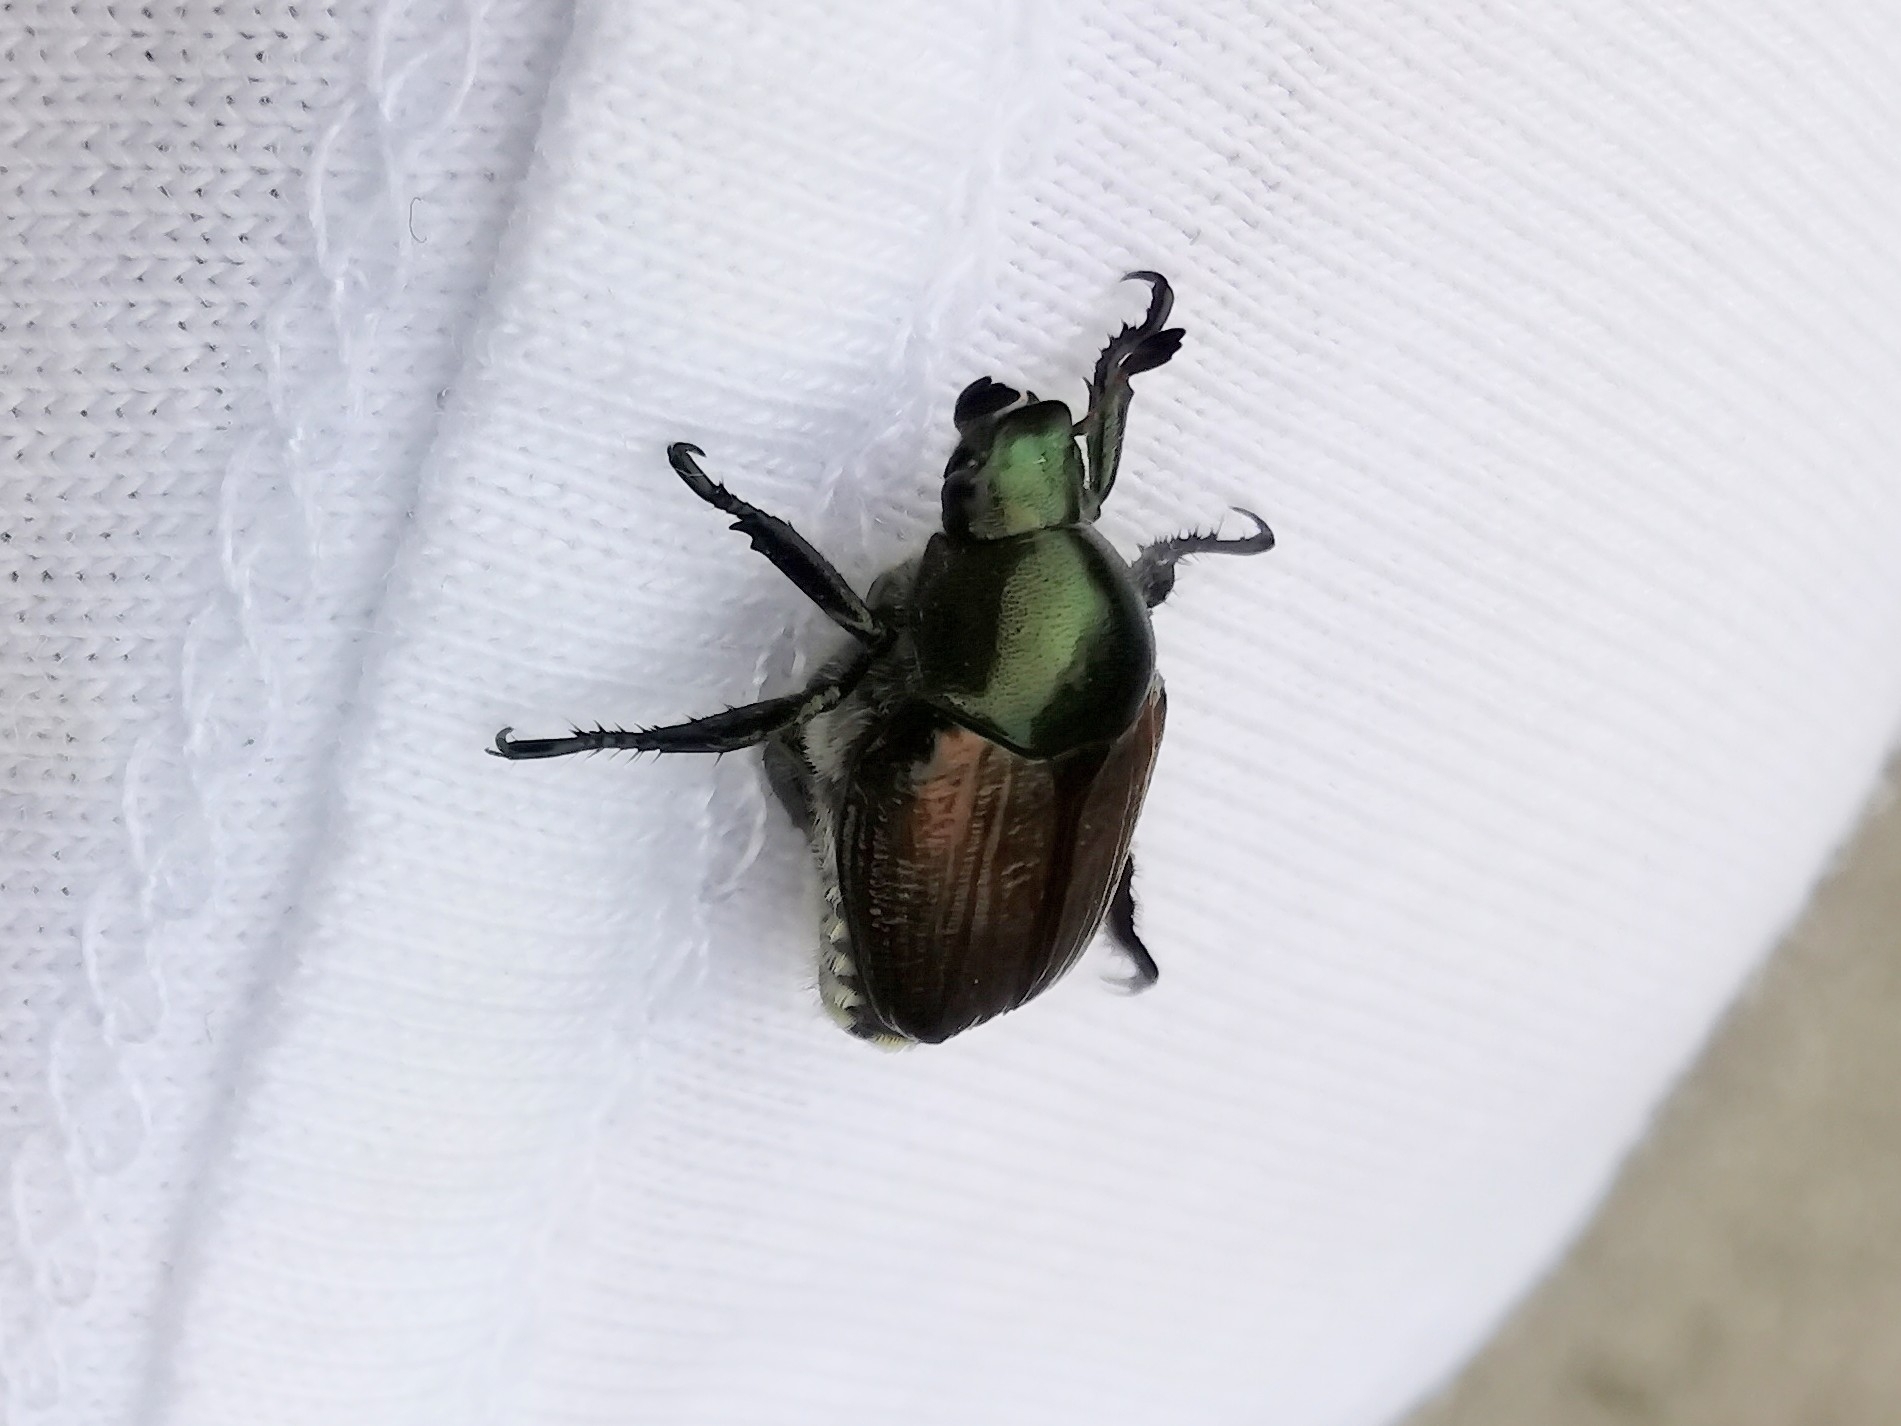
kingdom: Animalia
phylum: Arthropoda
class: Insecta
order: Coleoptera
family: Scarabaeidae
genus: Popillia
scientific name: Popillia japonica
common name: Japanese beetle
